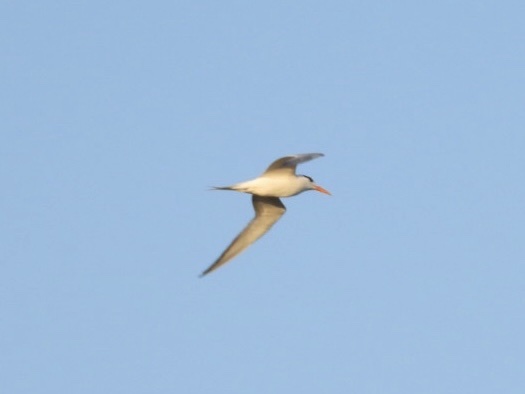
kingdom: Animalia
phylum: Chordata
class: Aves
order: Charadriiformes
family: Laridae
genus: Thalasseus
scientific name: Thalasseus maximus
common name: Royal tern
